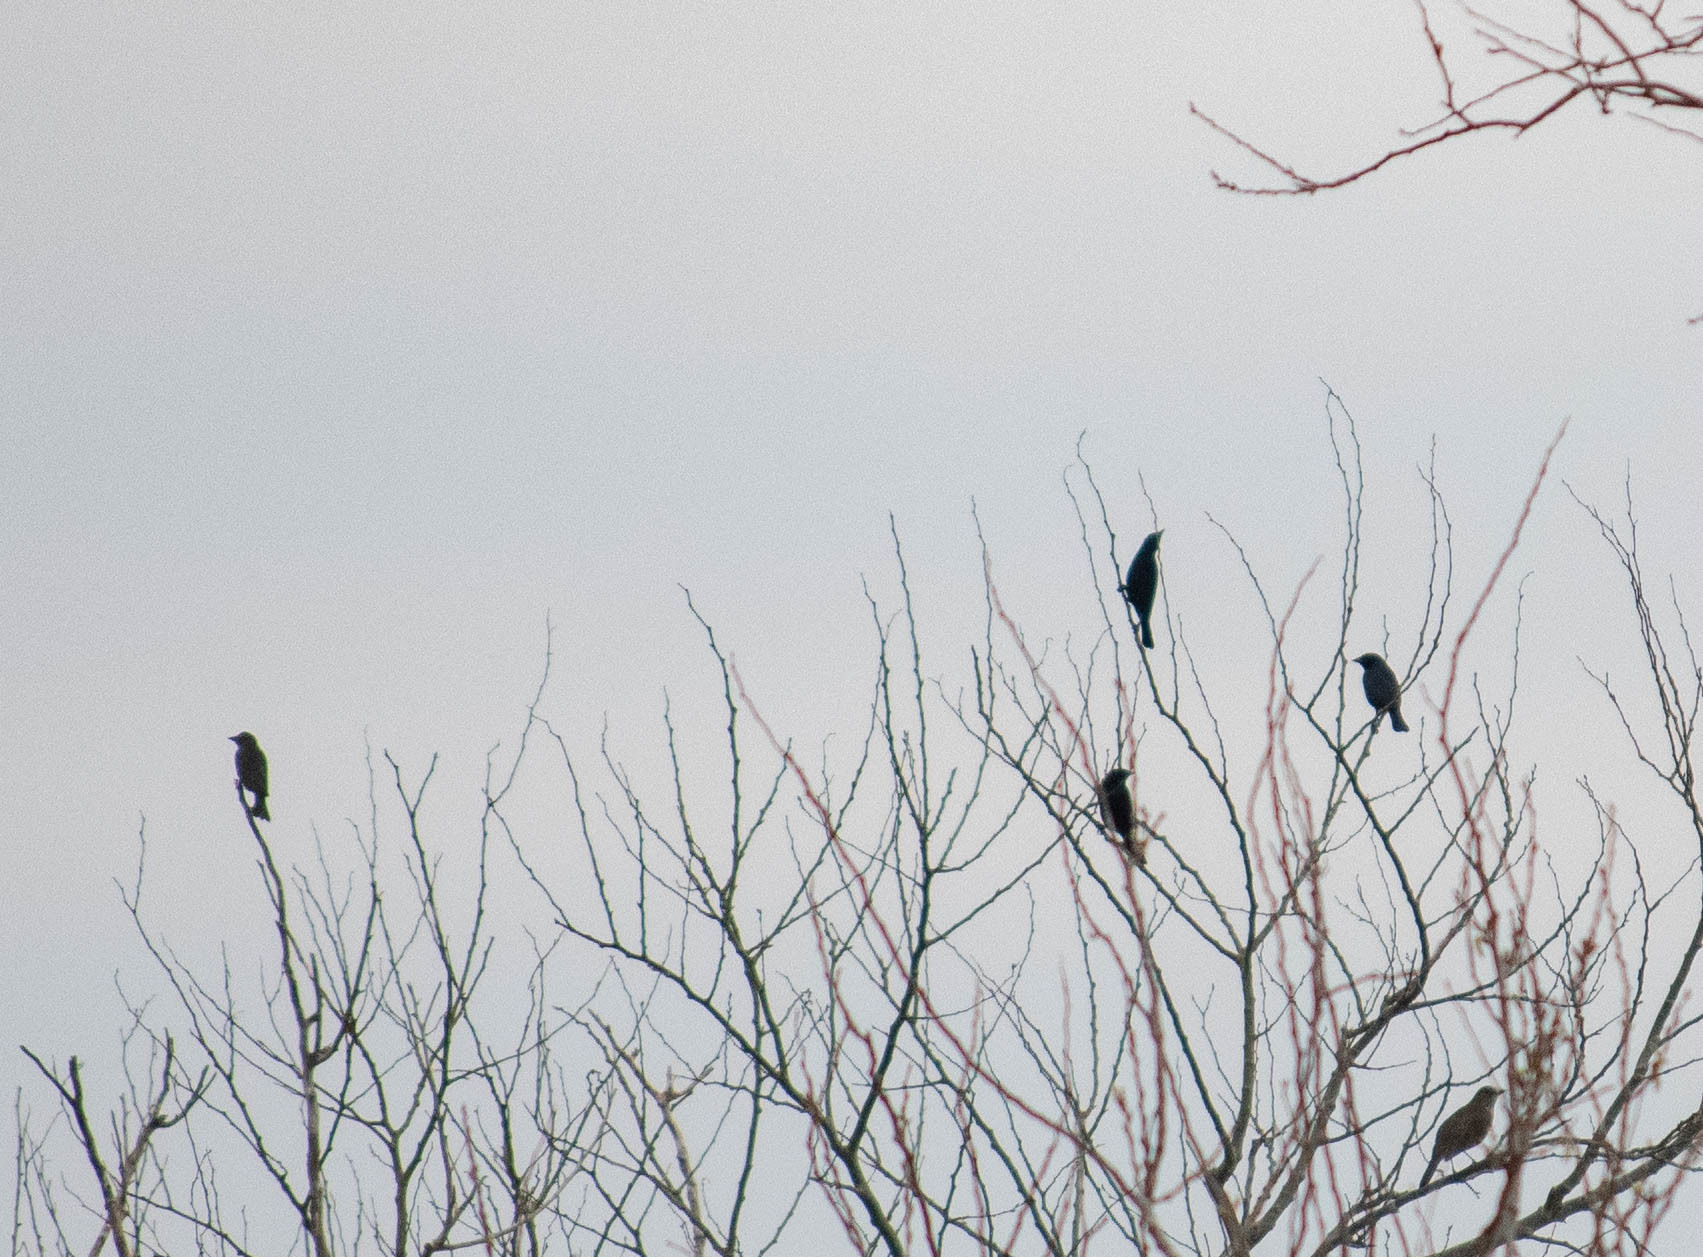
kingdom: Animalia
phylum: Chordata
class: Aves
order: Passeriformes
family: Icteridae
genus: Molothrus
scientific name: Molothrus bonariensis
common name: Shiny cowbird
